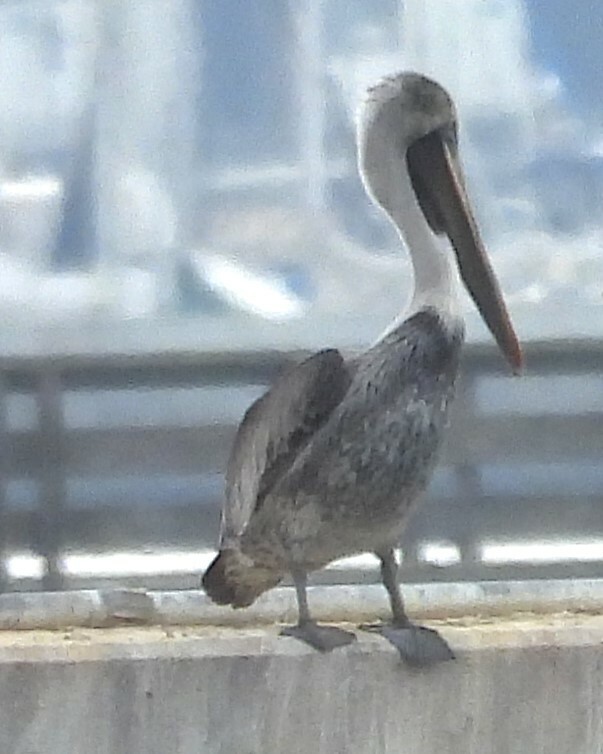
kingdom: Animalia
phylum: Chordata
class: Aves
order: Pelecaniformes
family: Pelecanidae
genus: Pelecanus
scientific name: Pelecanus occidentalis
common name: Brown pelican
